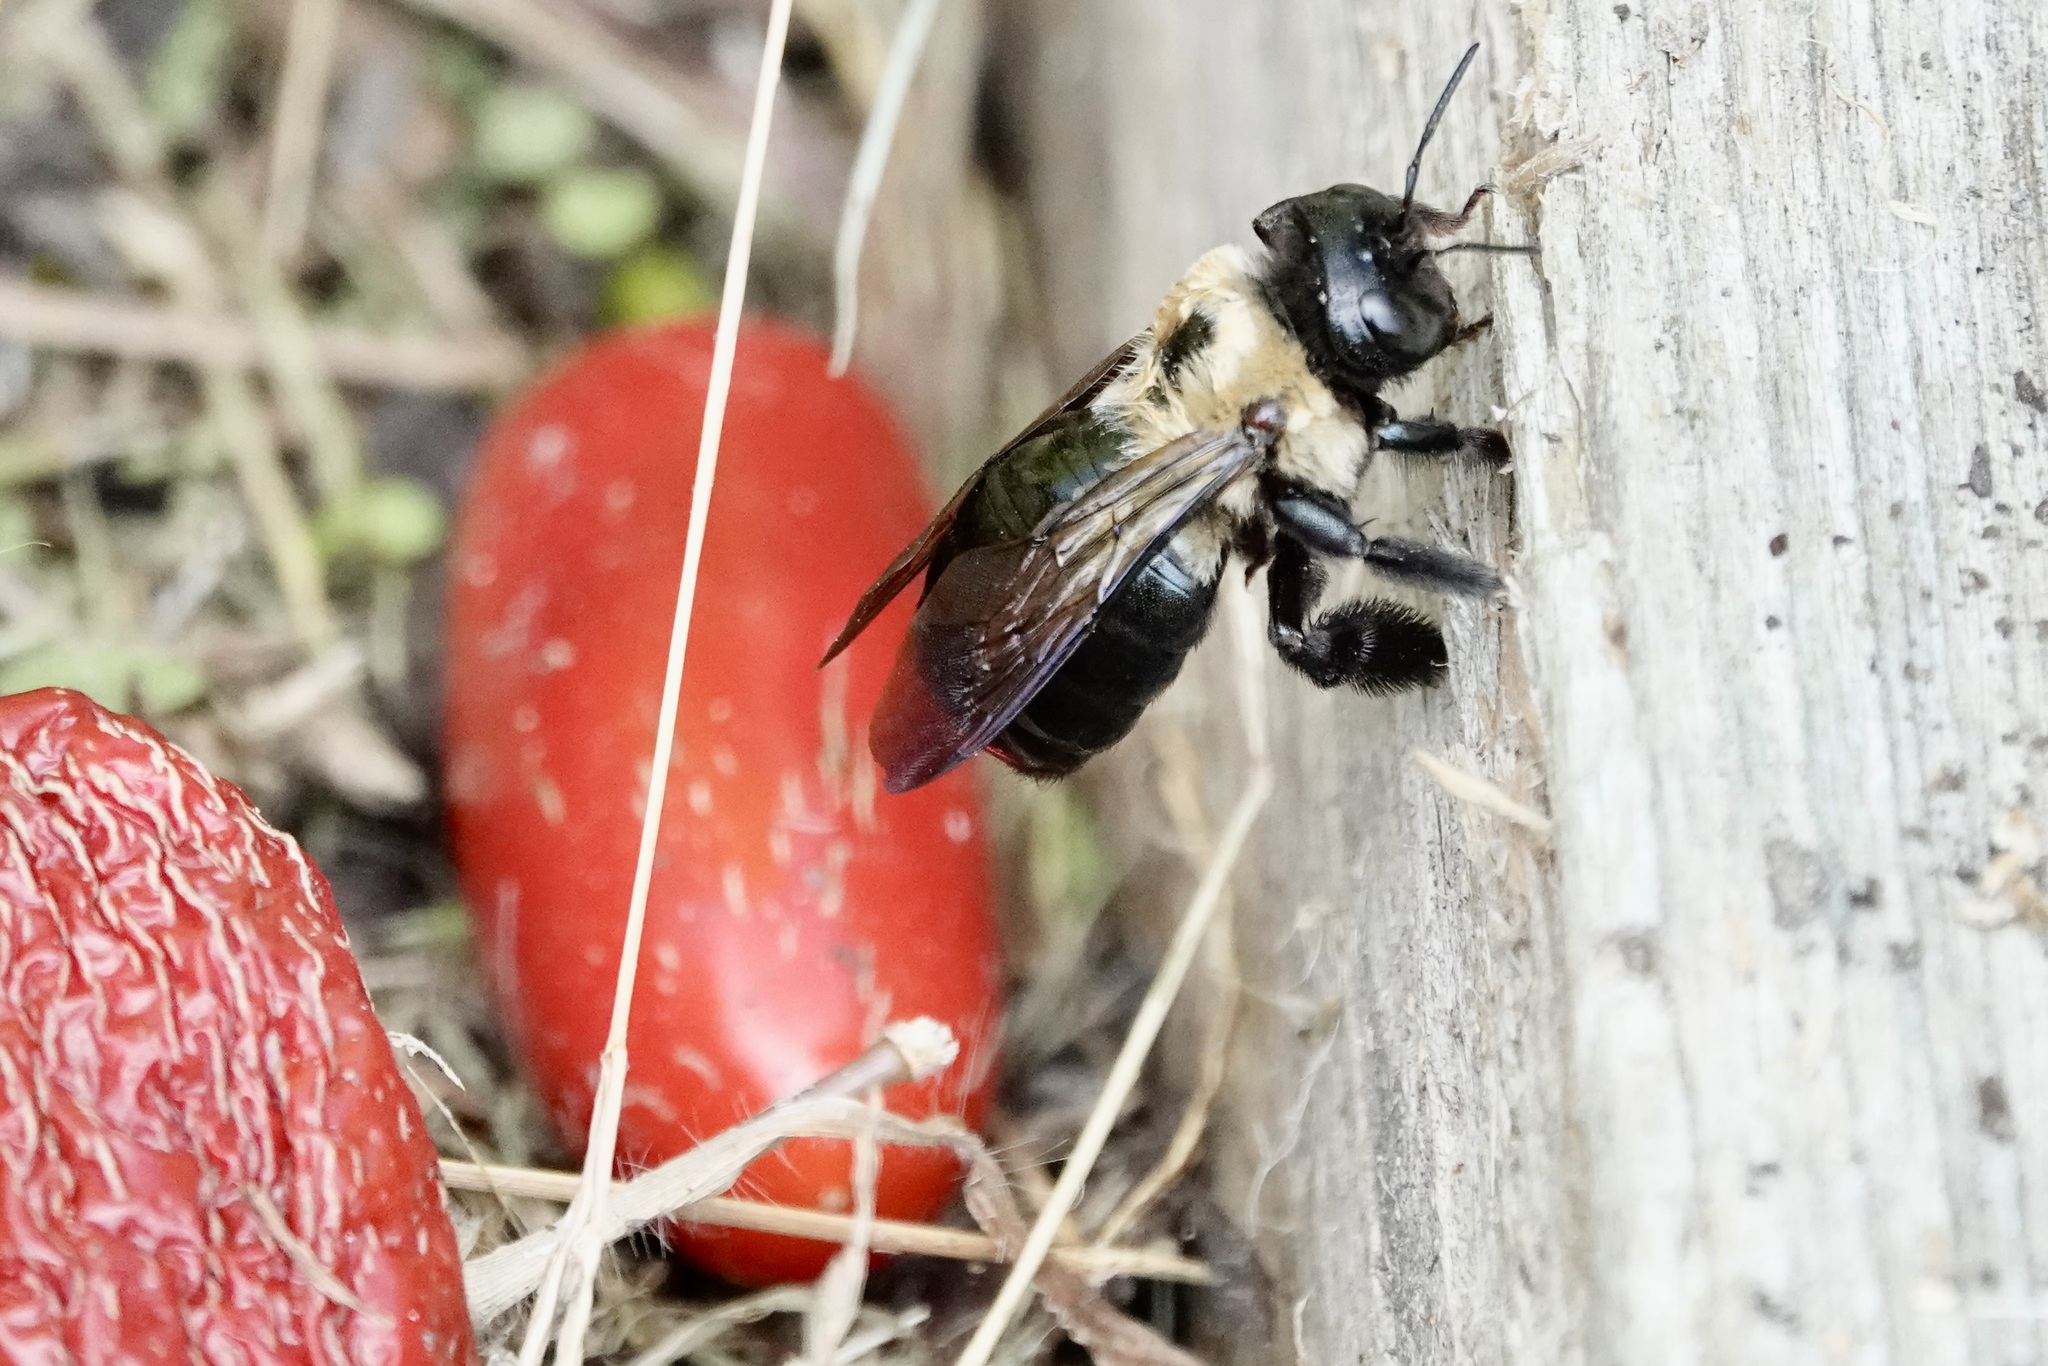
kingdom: Animalia
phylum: Arthropoda
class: Insecta
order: Hymenoptera
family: Apidae
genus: Xylocopa
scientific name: Xylocopa virginica
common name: Carpenter bee
